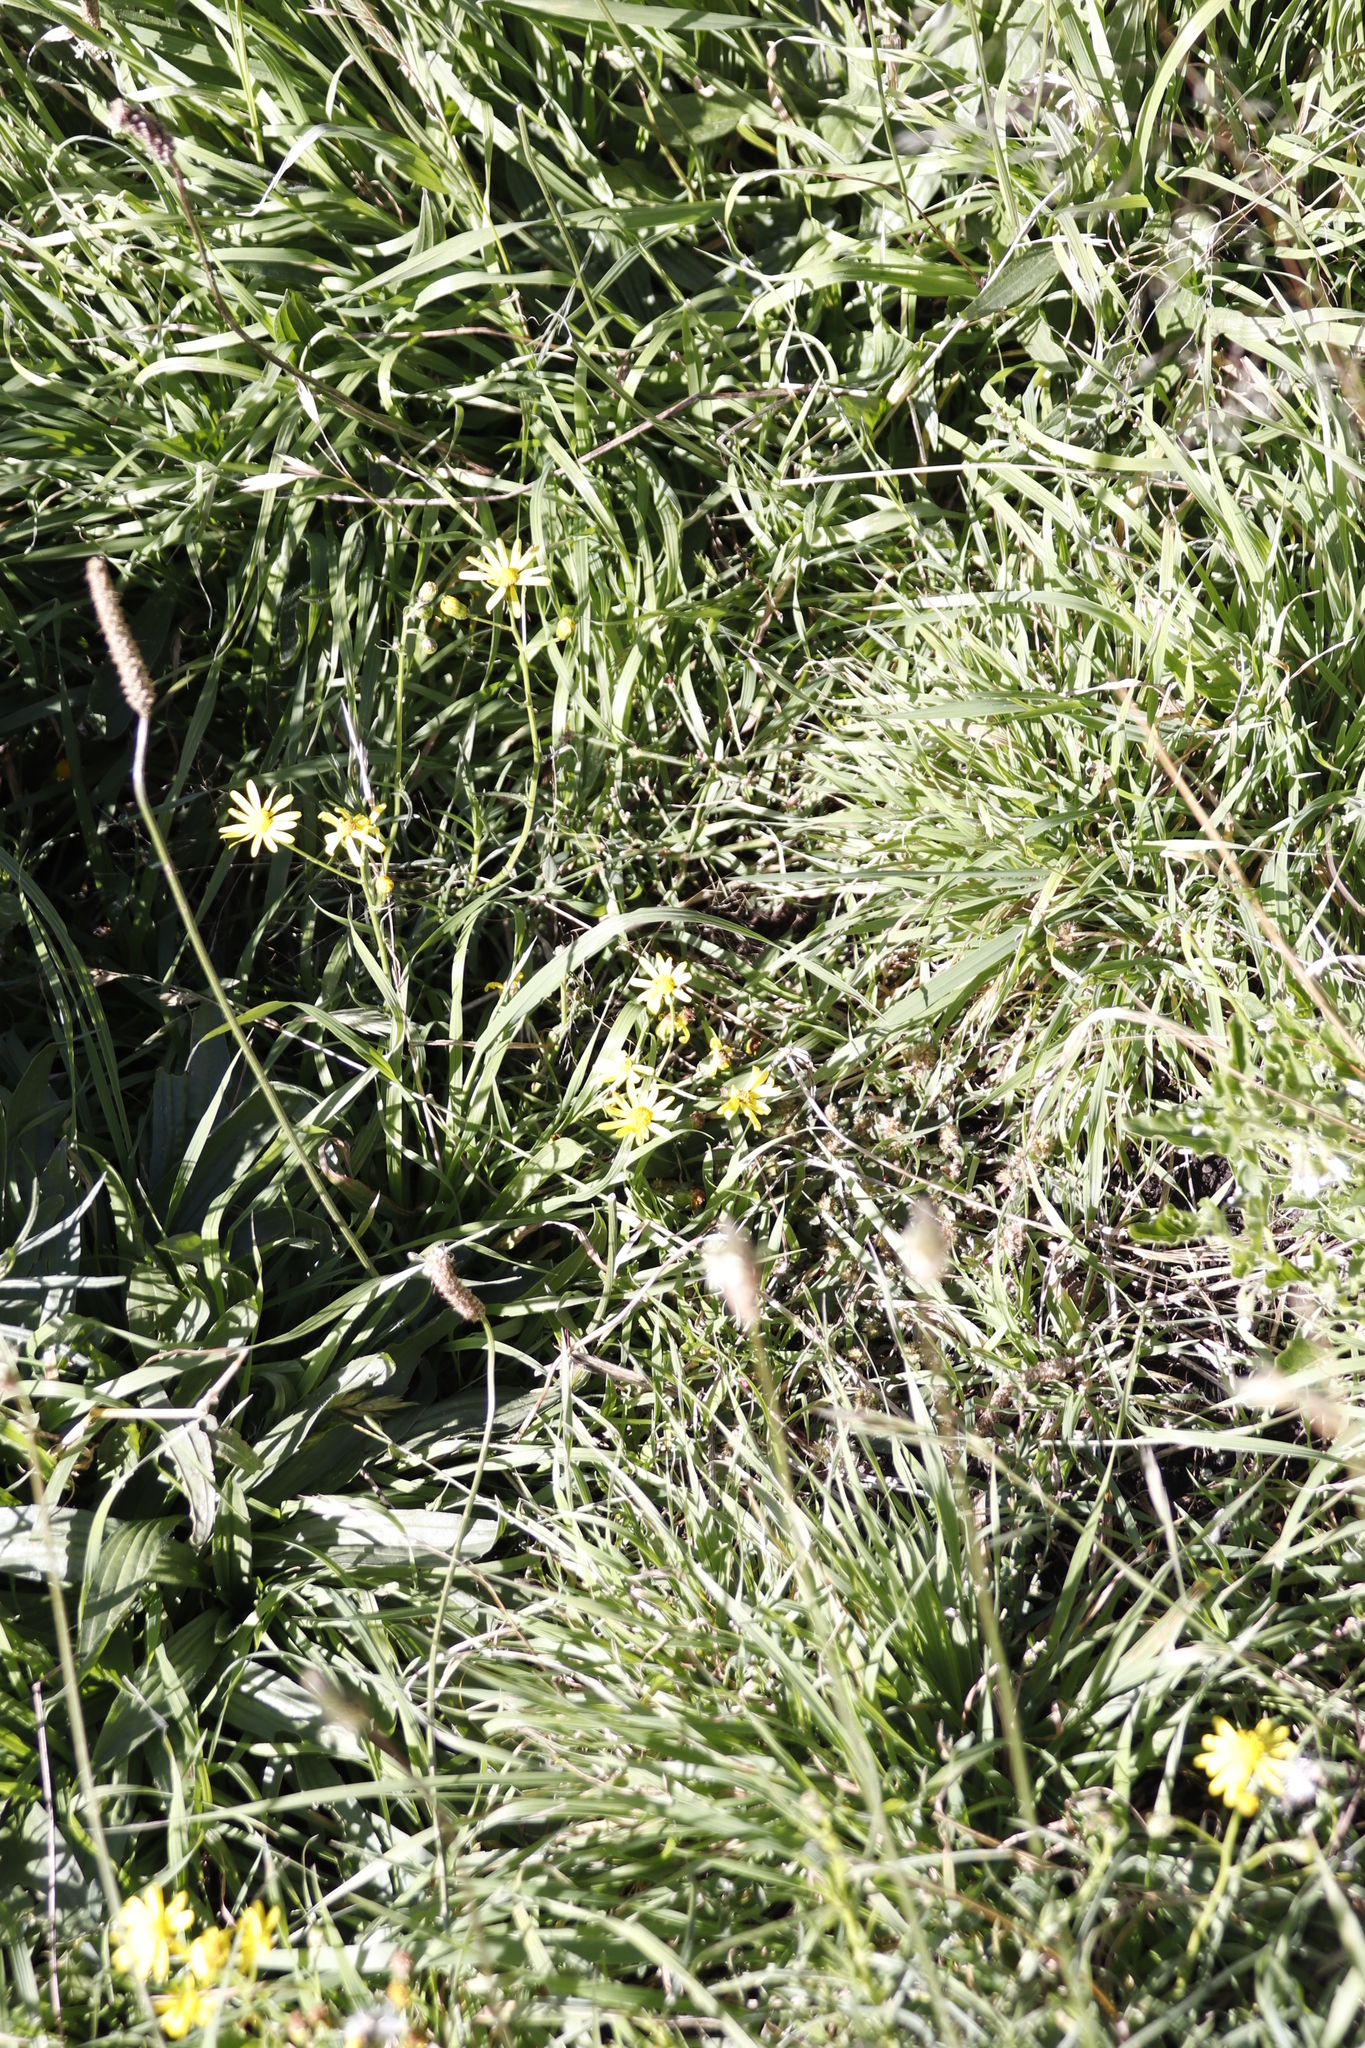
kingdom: Plantae
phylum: Tracheophyta
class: Magnoliopsida
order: Lamiales
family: Plantaginaceae
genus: Plantago
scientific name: Plantago lanceolata
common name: Ribwort plantain
